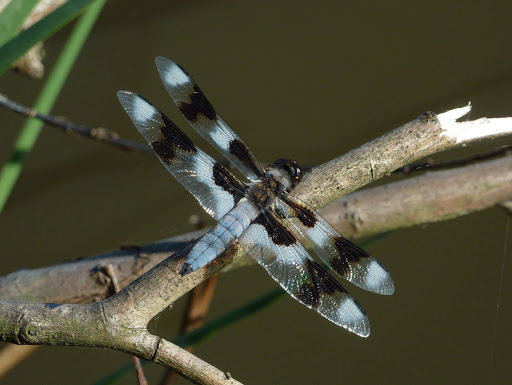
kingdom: Animalia
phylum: Arthropoda
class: Insecta
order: Odonata
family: Libellulidae
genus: Libellula
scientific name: Libellula forensis
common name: Eight-spotted skimmer
